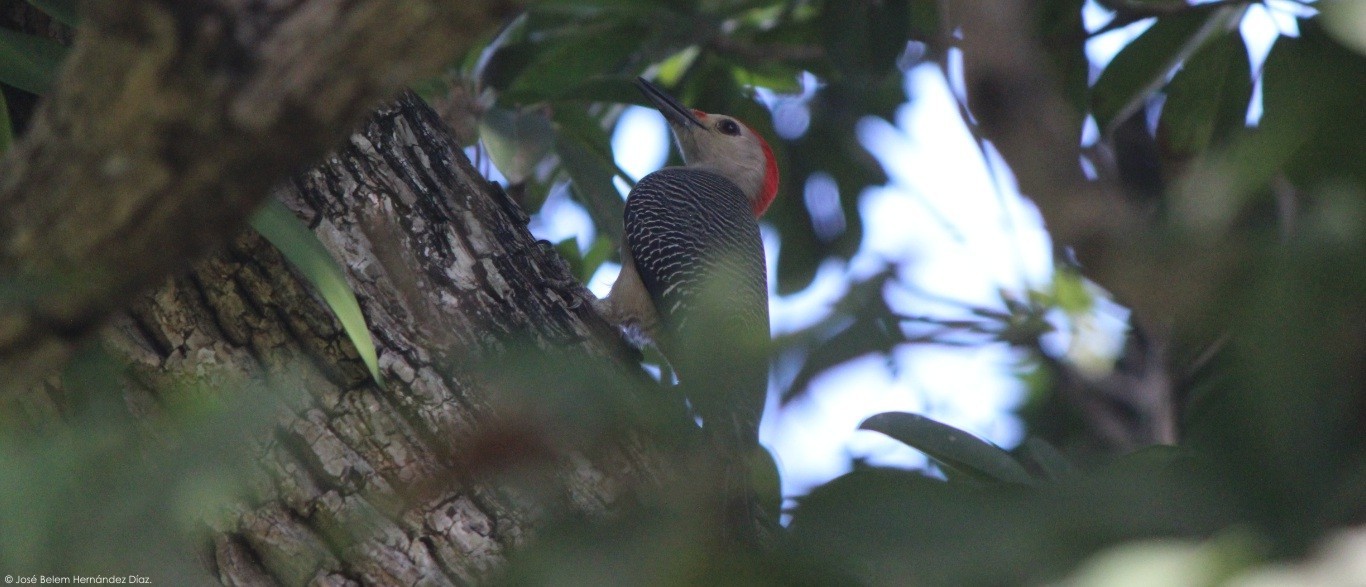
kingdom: Animalia
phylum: Chordata
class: Aves
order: Piciformes
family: Picidae
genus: Melanerpes
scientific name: Melanerpes aurifrons
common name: Golden-fronted woodpecker
